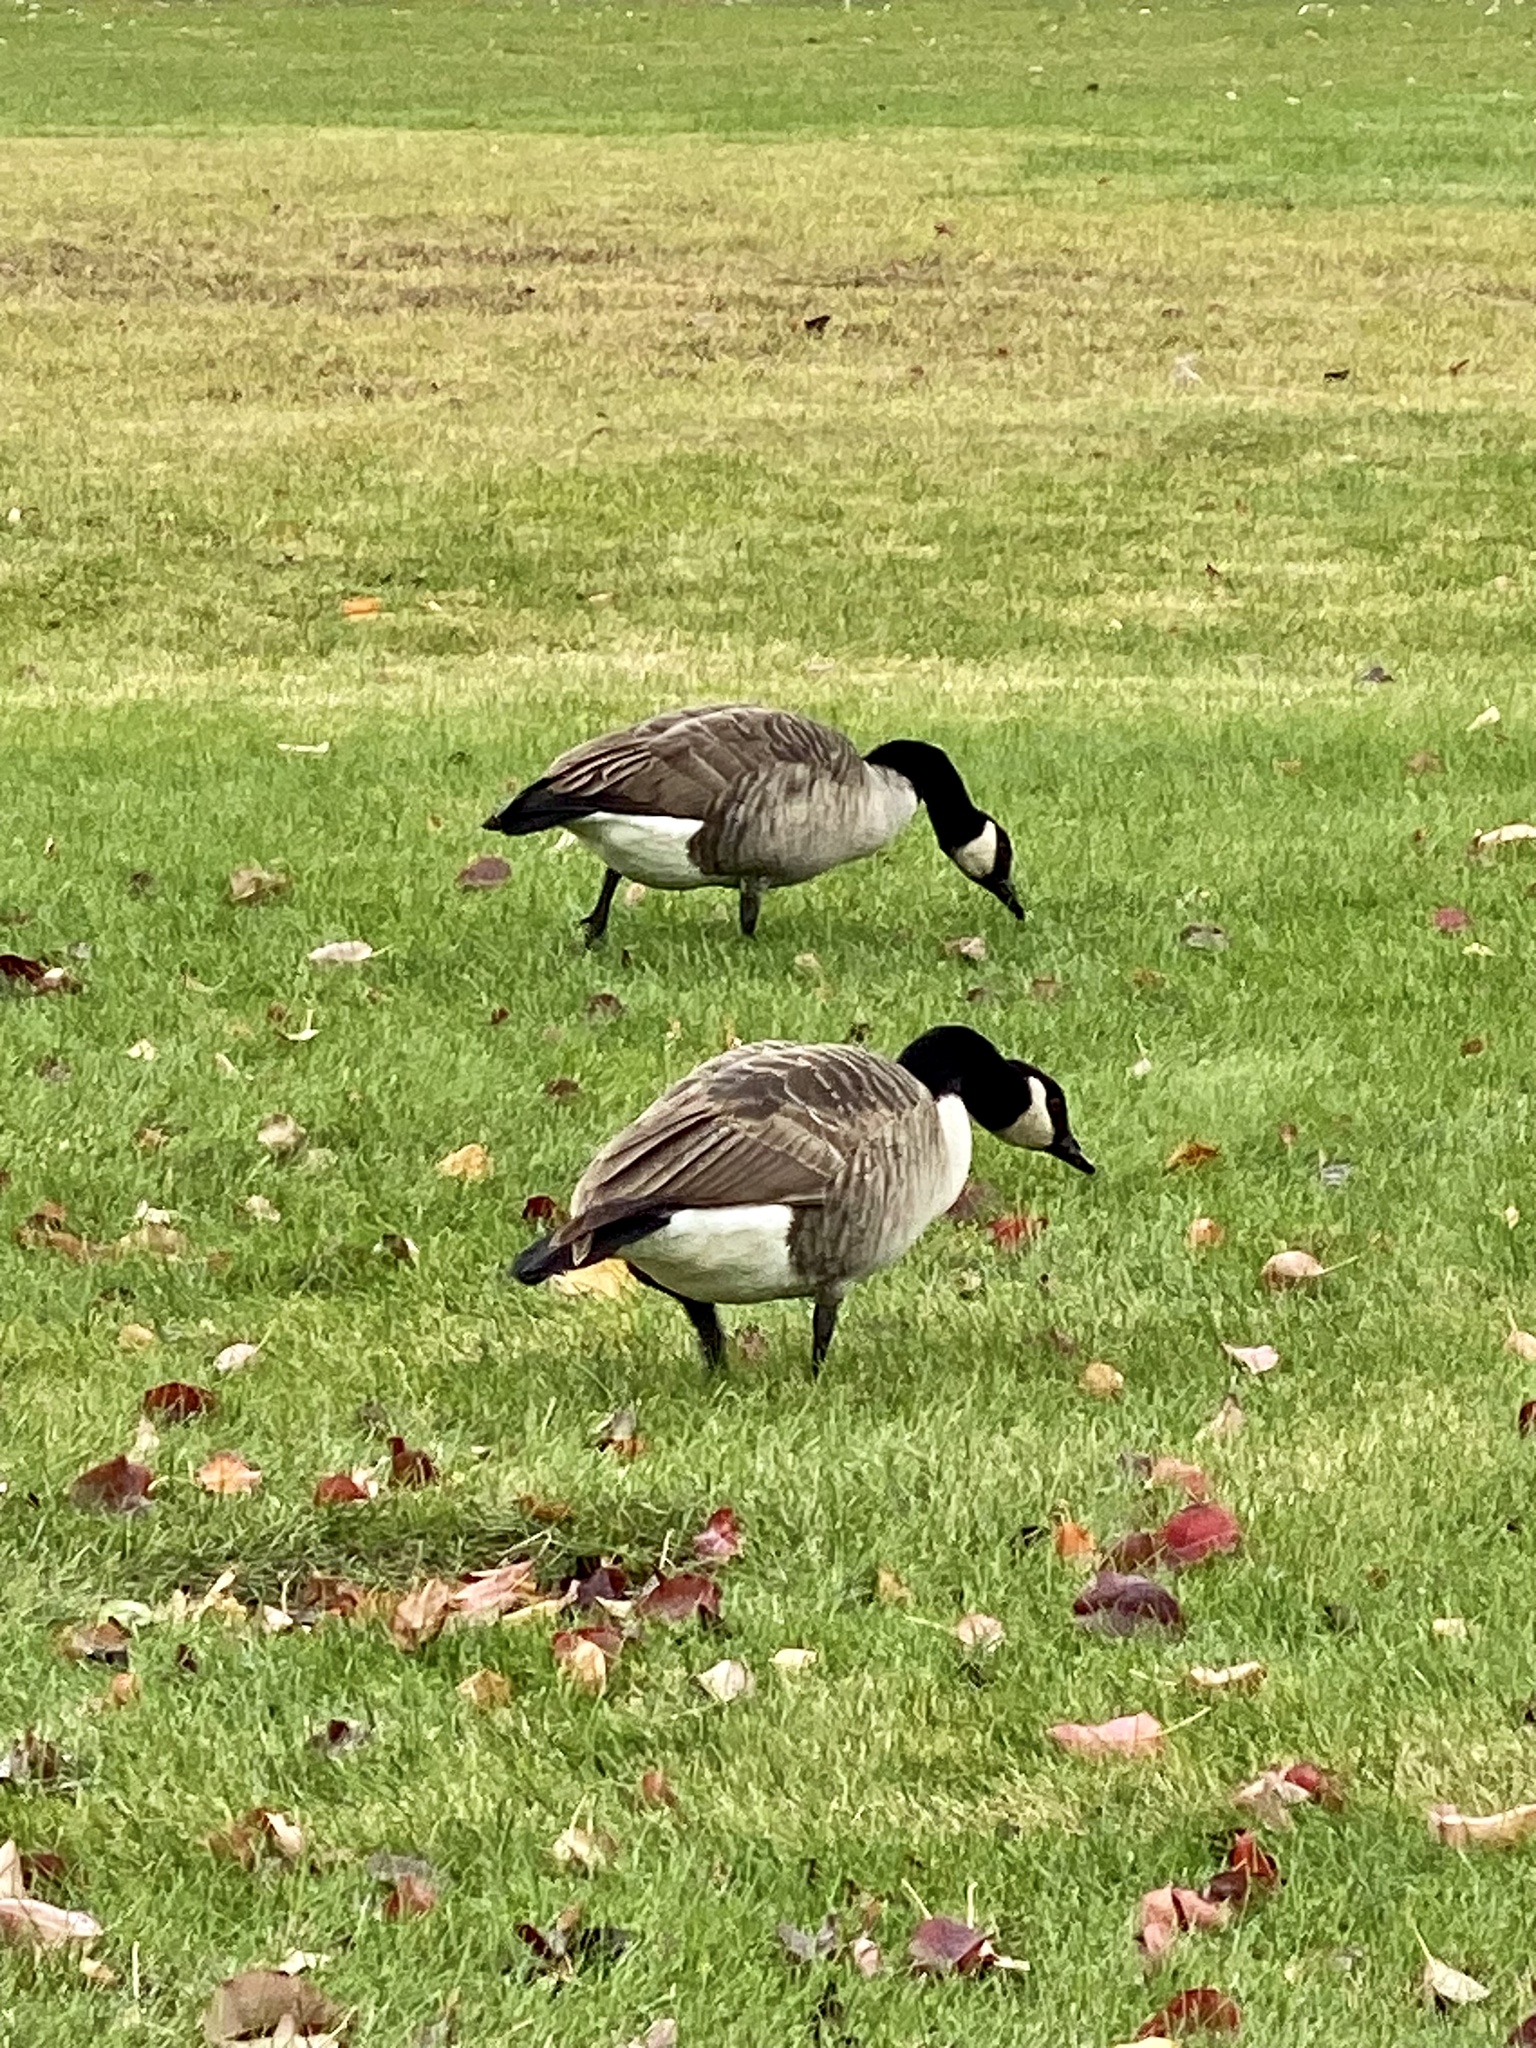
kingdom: Animalia
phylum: Chordata
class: Aves
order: Anseriformes
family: Anatidae
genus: Branta
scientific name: Branta canadensis
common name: Canada goose
